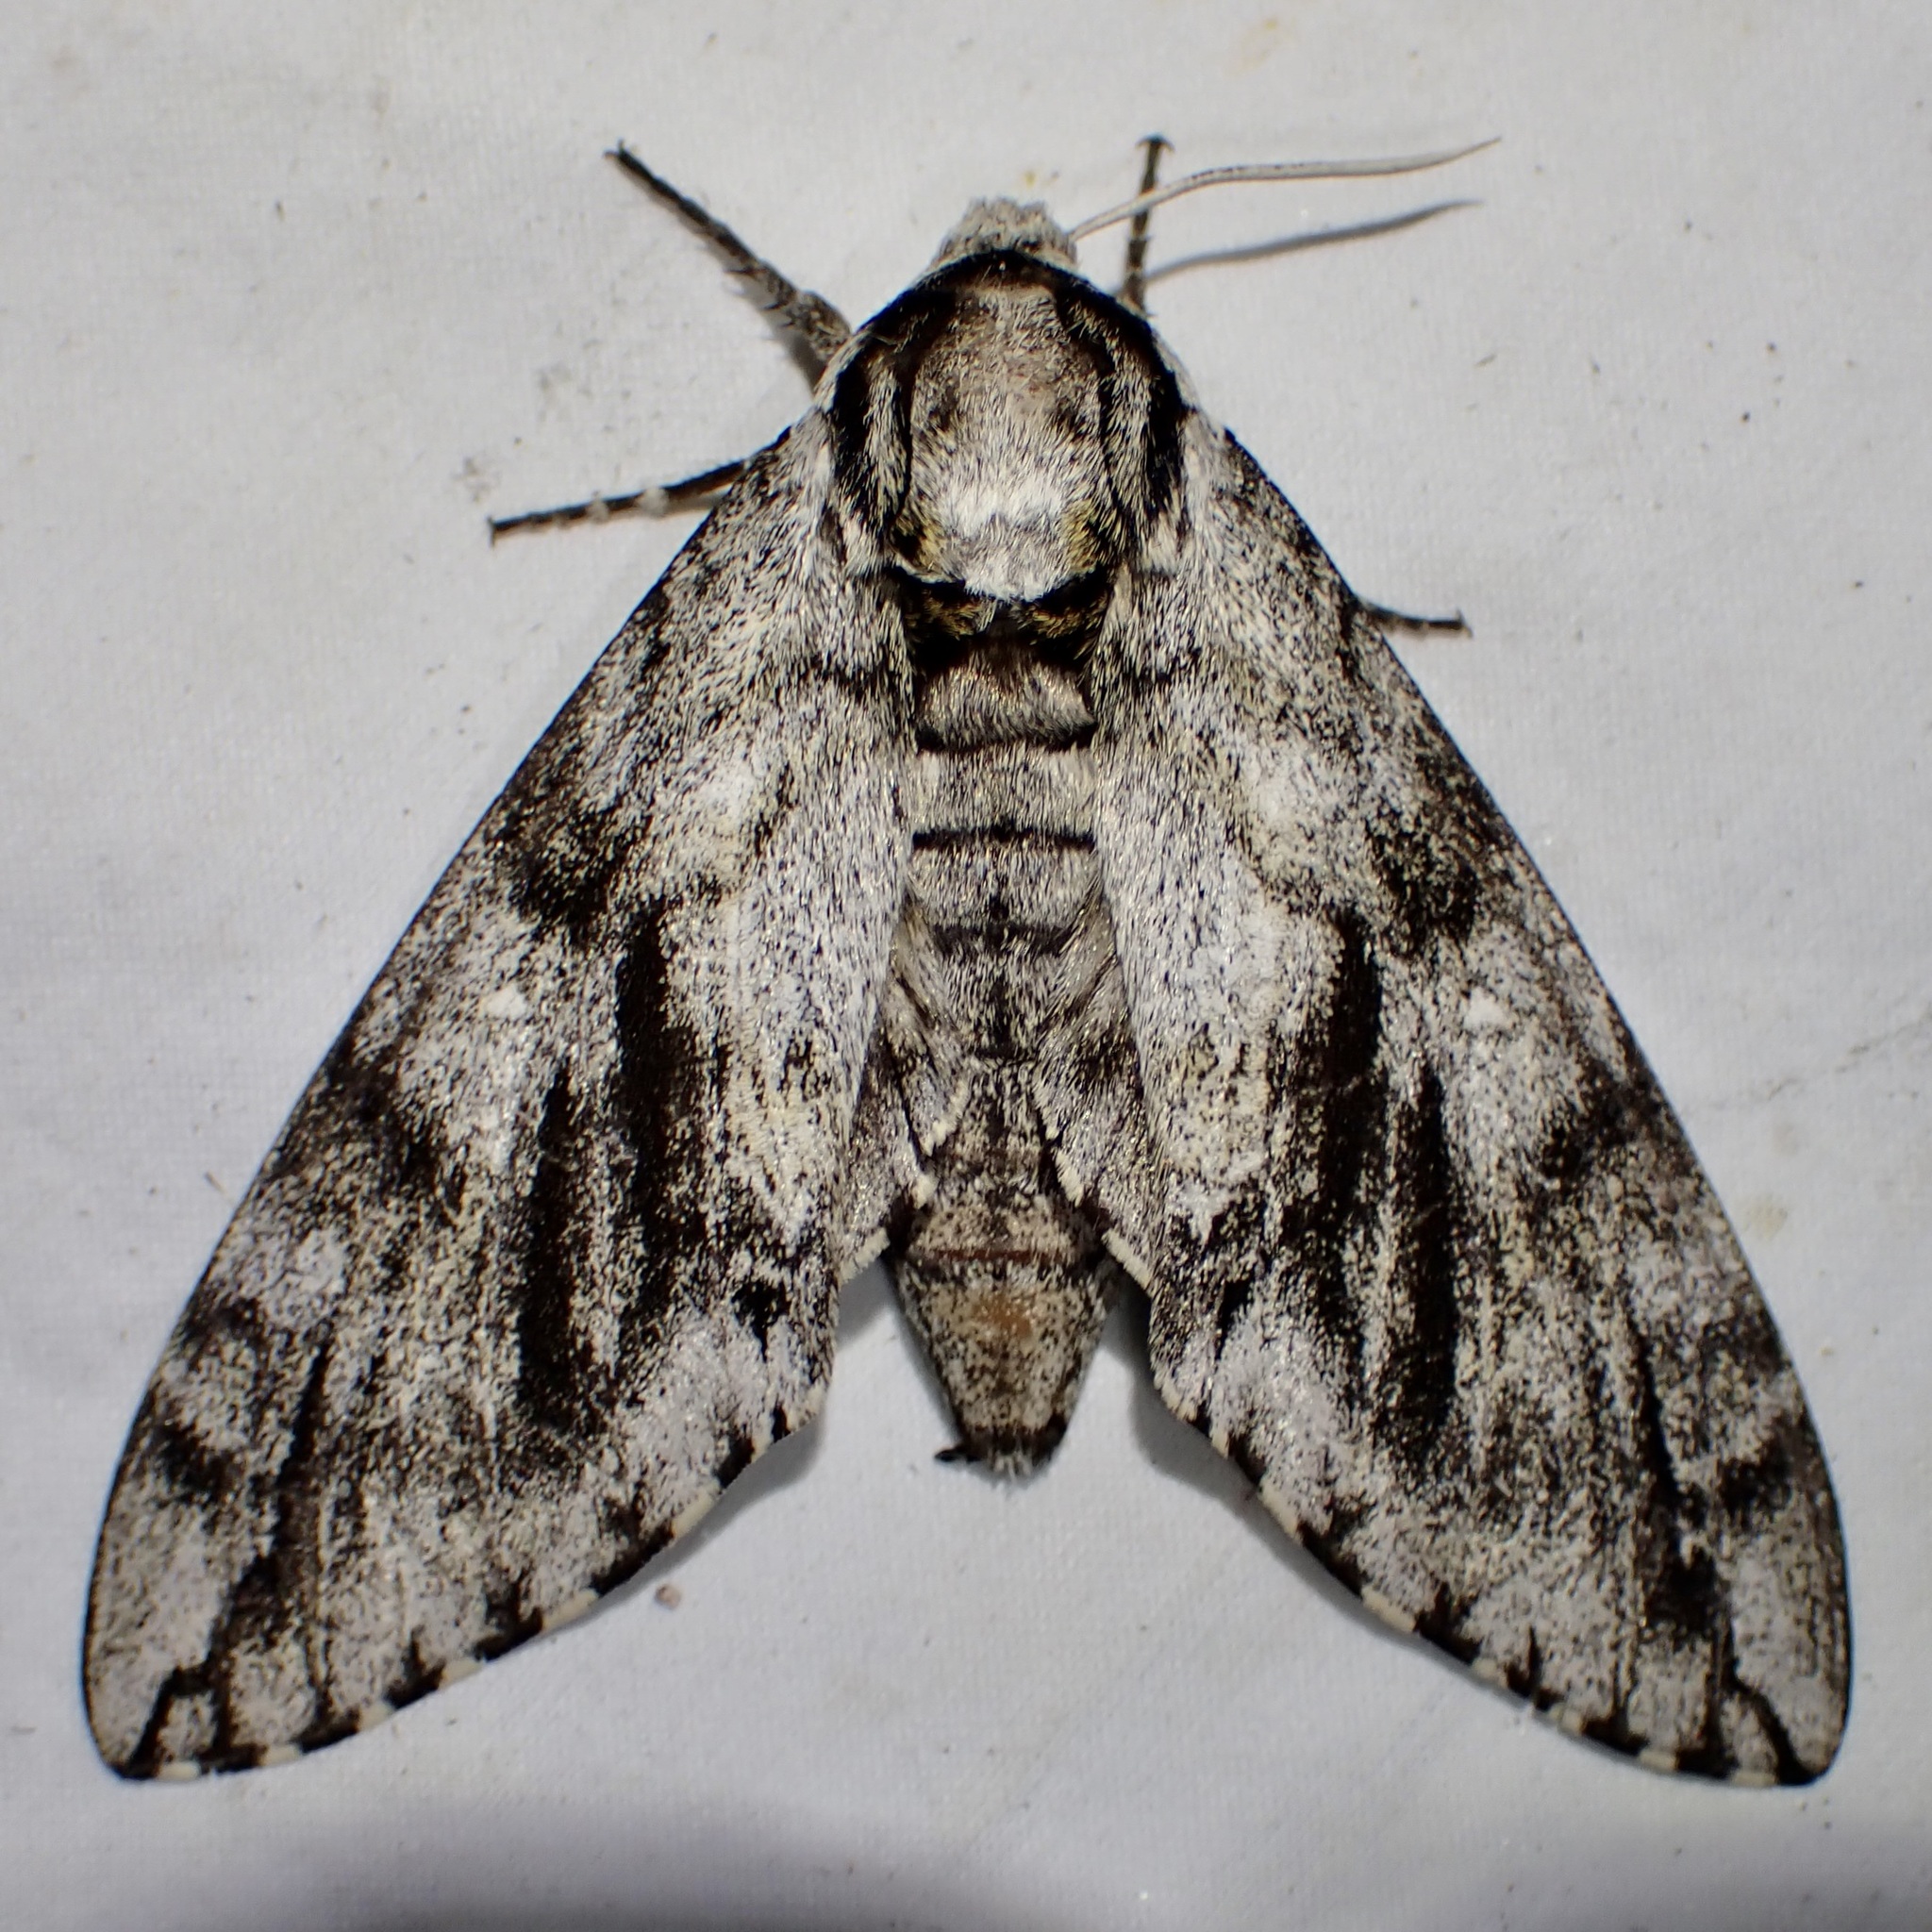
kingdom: Animalia
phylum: Arthropoda
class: Insecta
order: Lepidoptera
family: Sphingidae
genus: Ceratomia
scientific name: Ceratomia sonorensis
